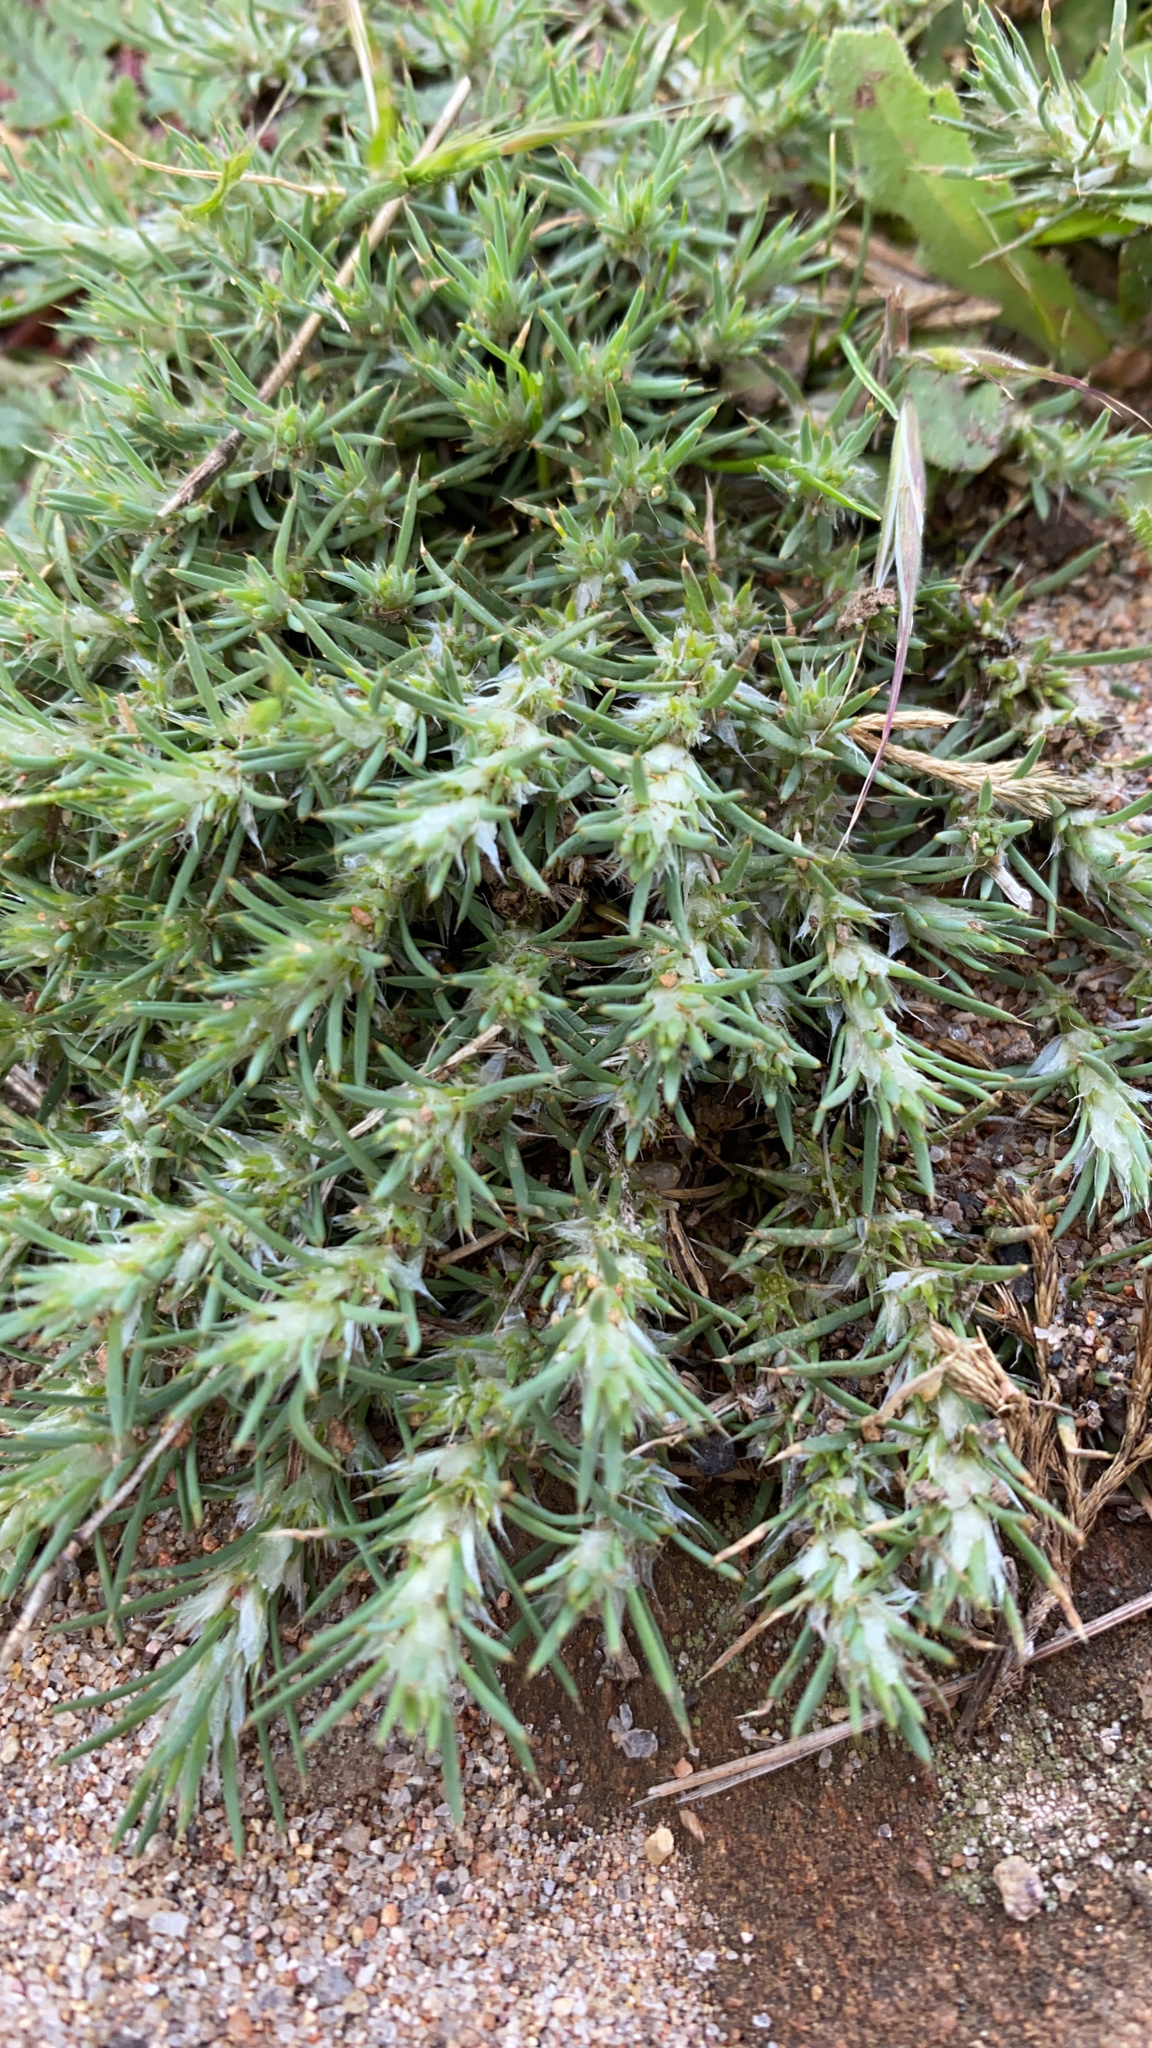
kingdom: Plantae
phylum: Tracheophyta
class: Magnoliopsida
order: Caryophyllales
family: Caryophyllaceae
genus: Cardionema
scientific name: Cardionema ramosissima
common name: Sandcarpet
